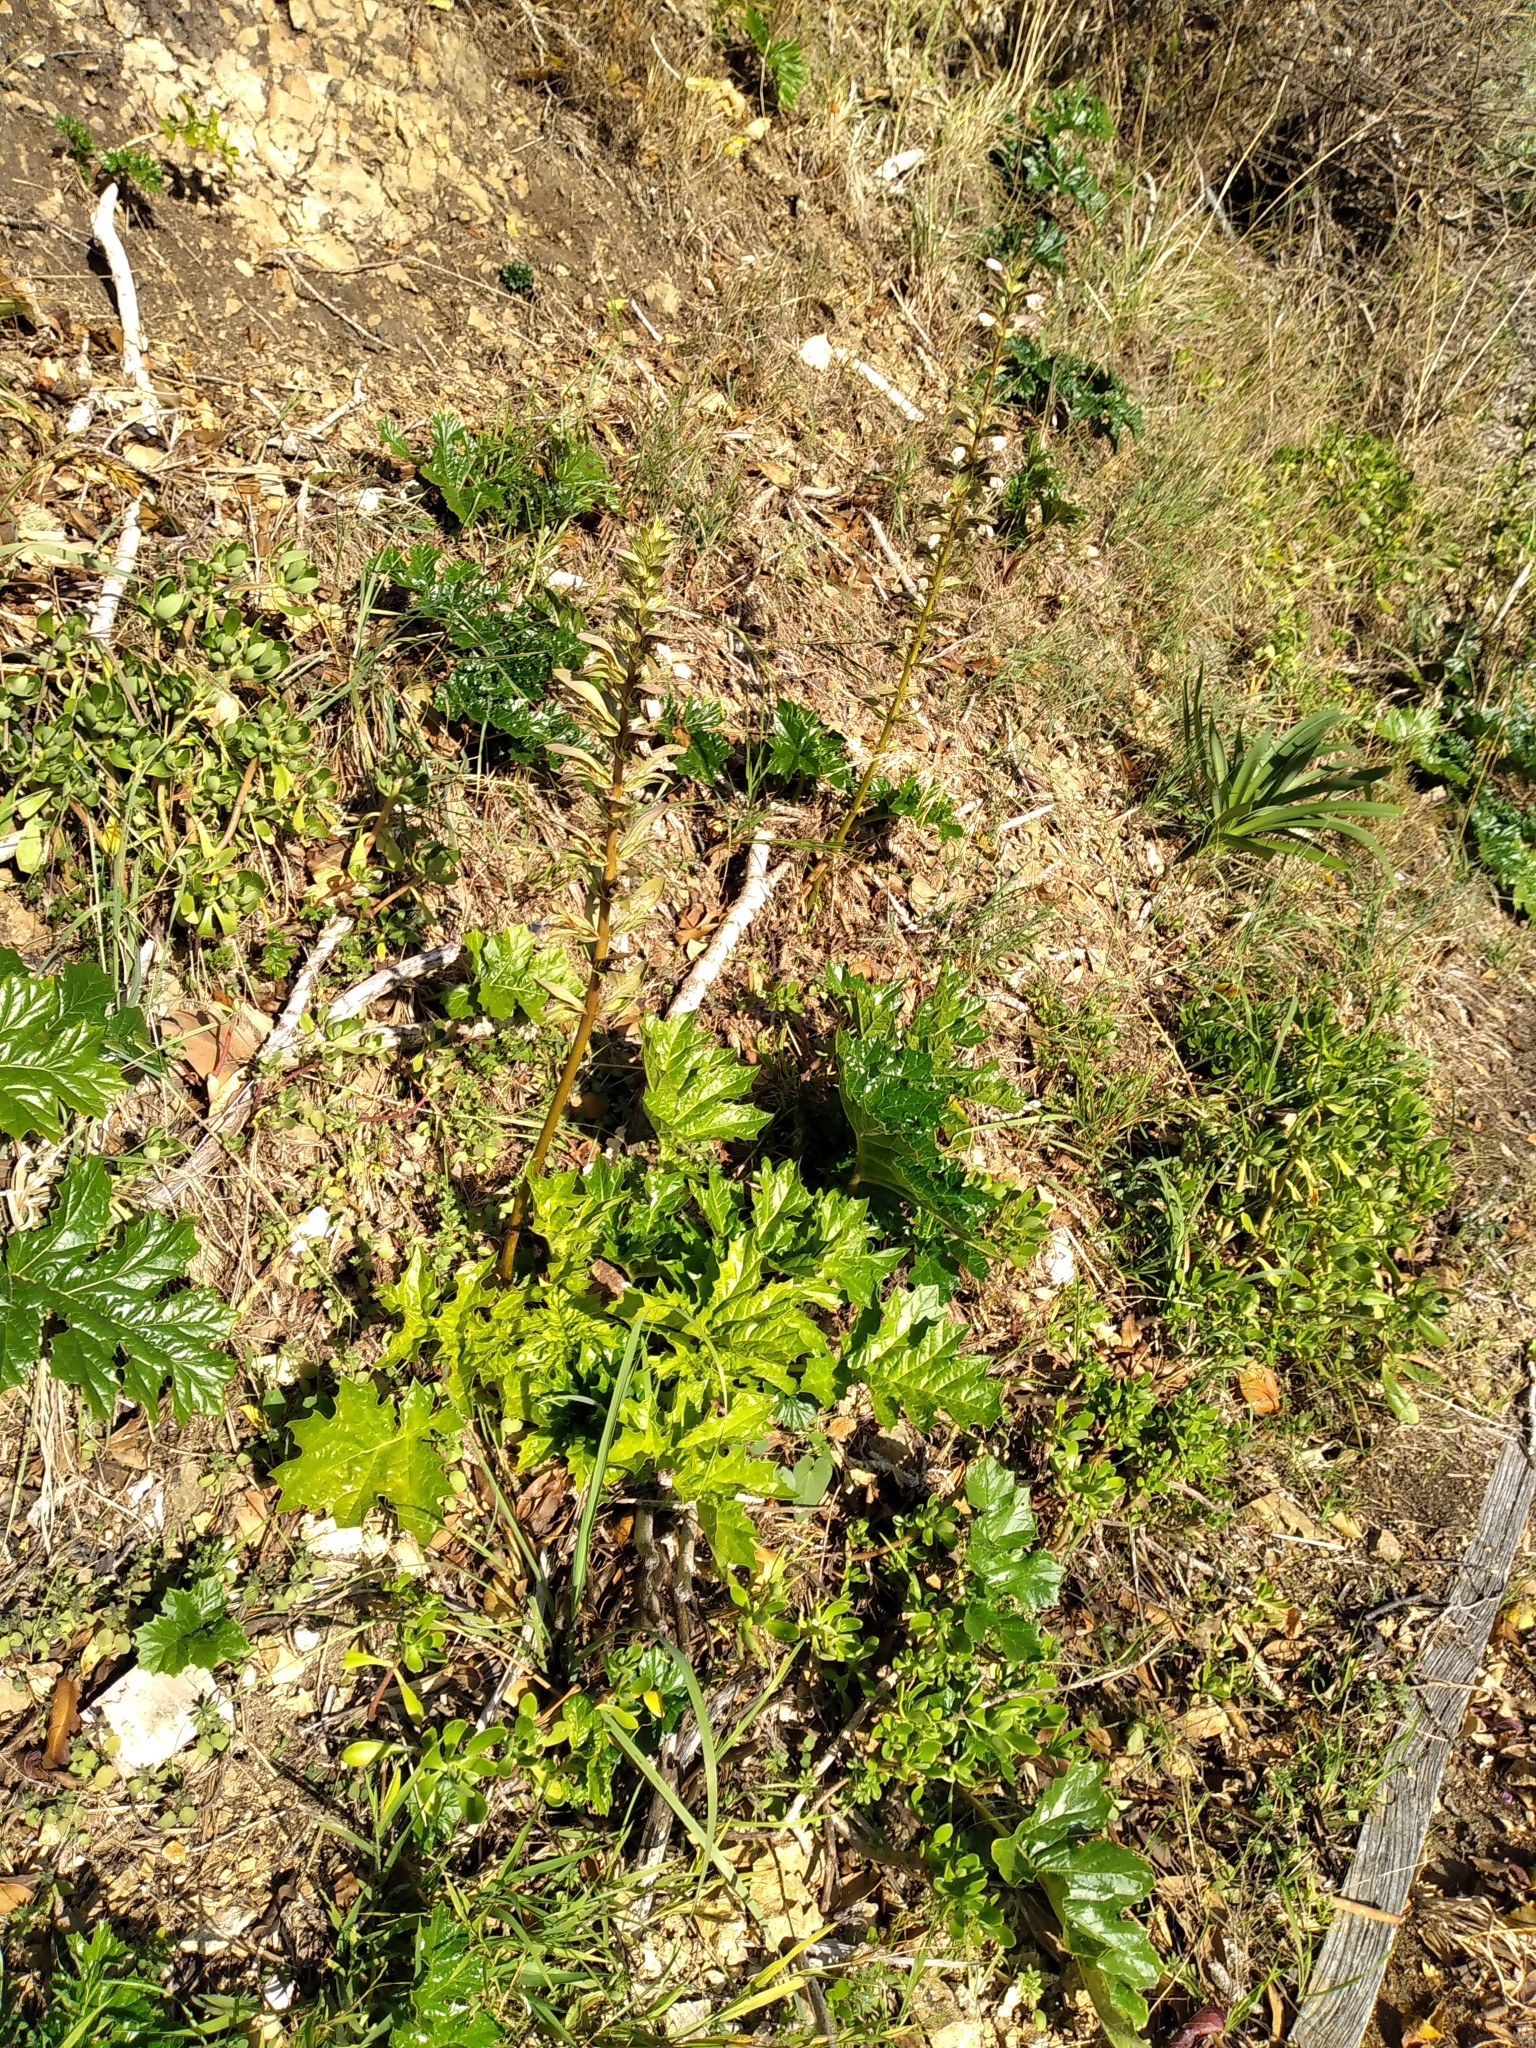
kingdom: Plantae
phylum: Tracheophyta
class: Magnoliopsida
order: Lamiales
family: Acanthaceae
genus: Acanthus
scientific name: Acanthus mollis
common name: Bear's-breech
